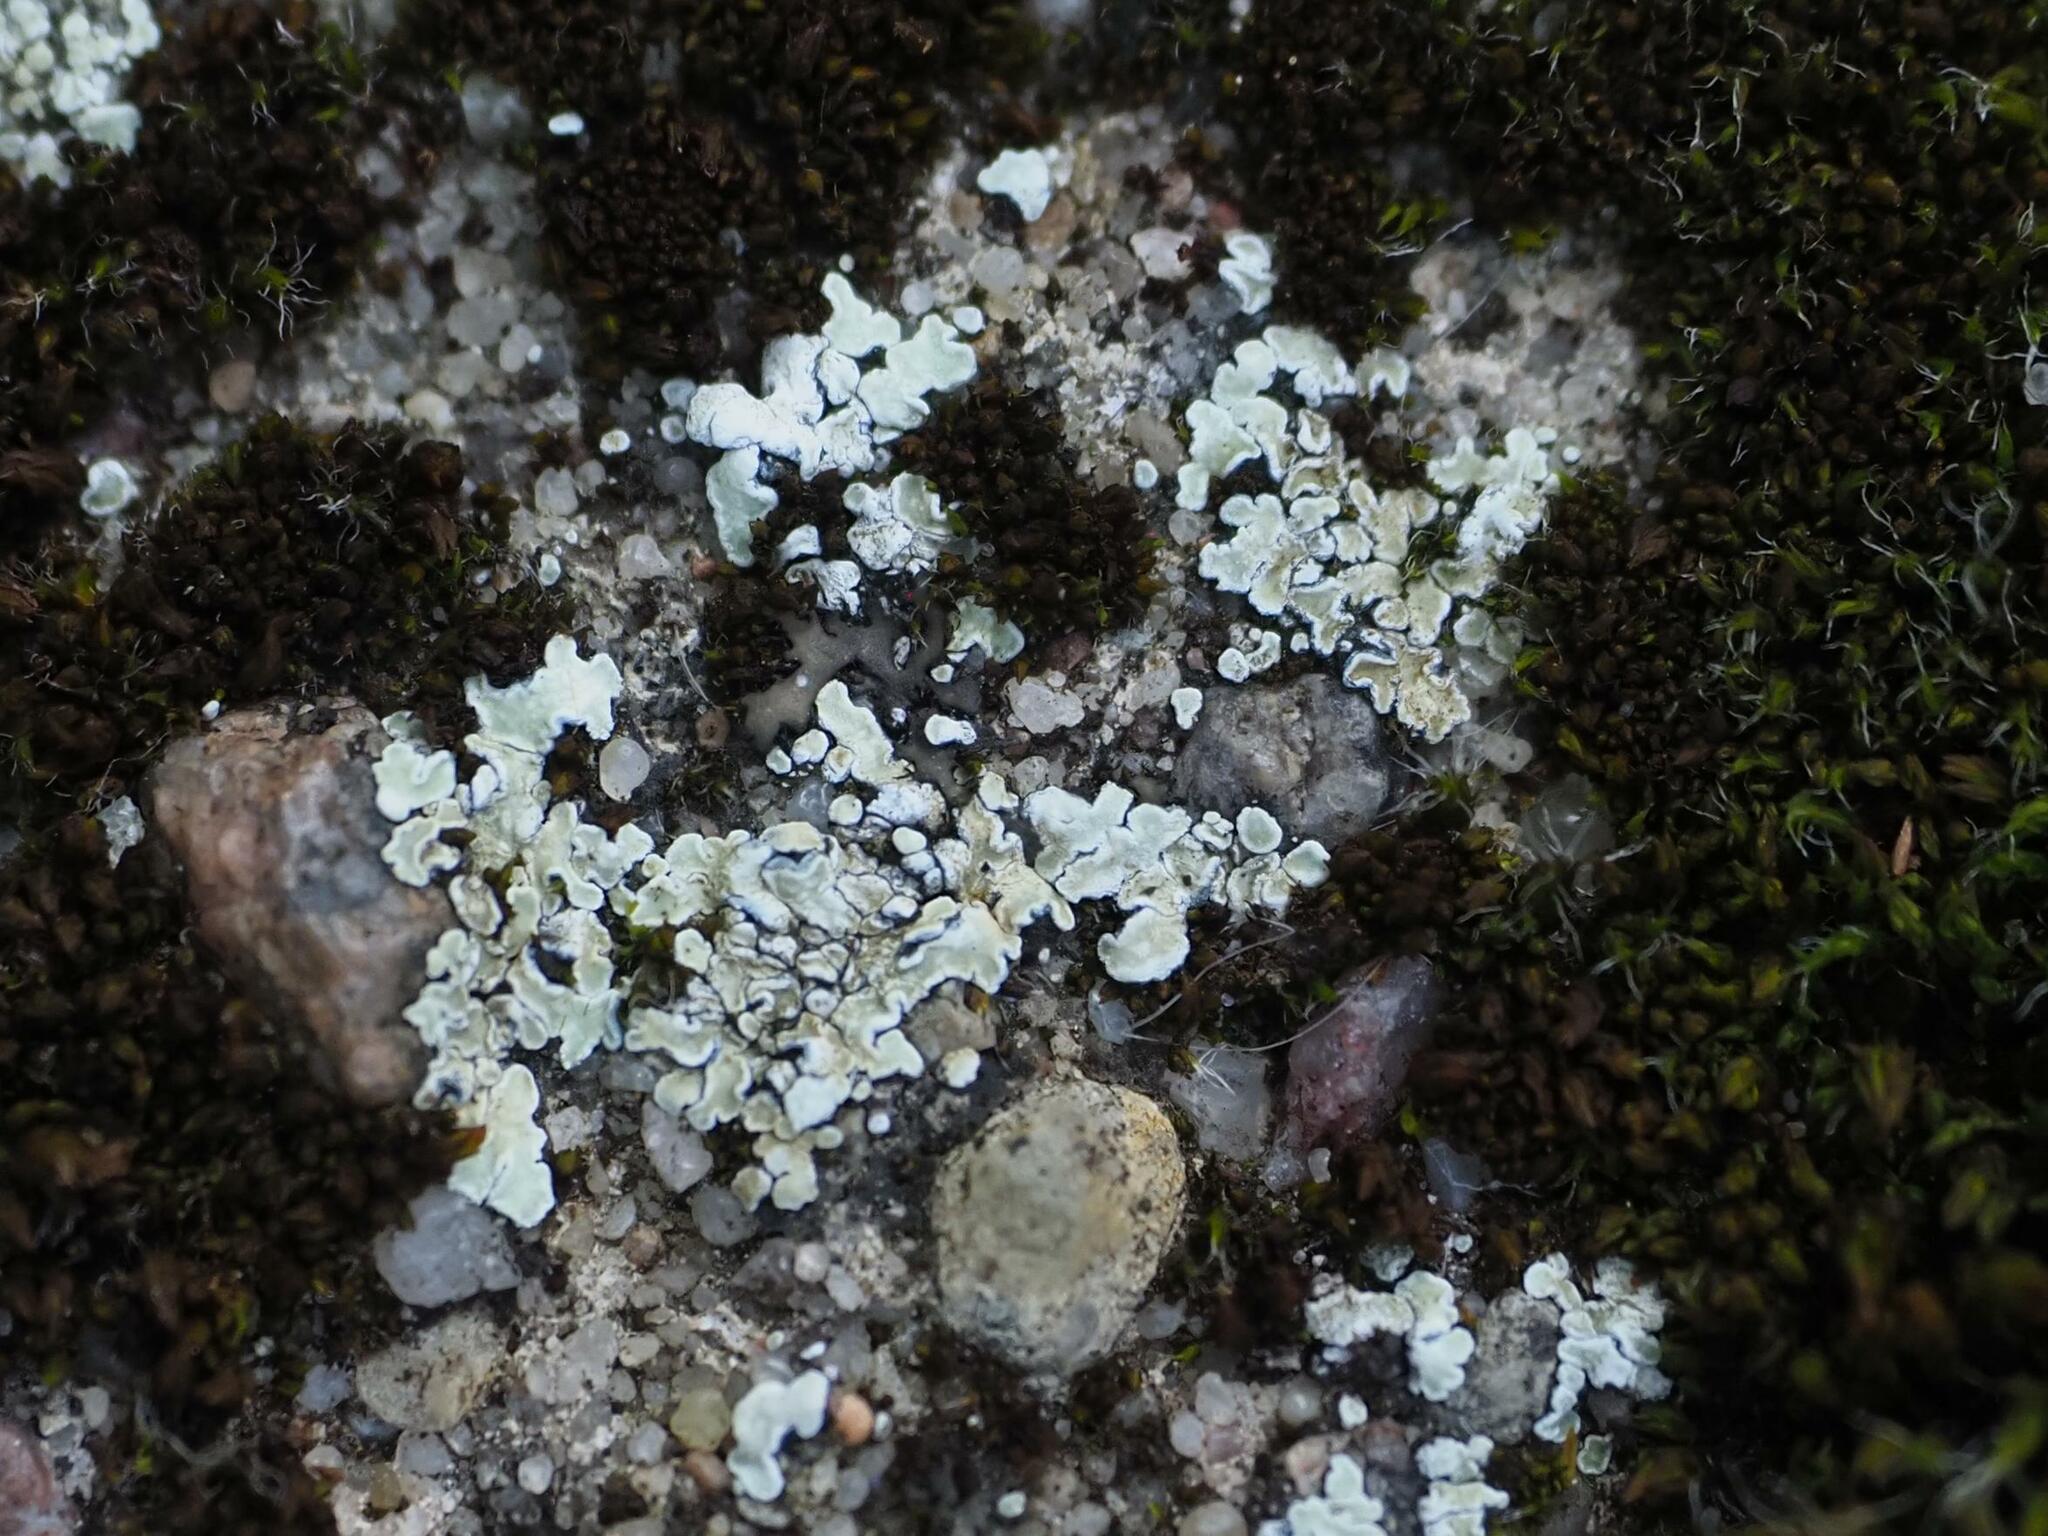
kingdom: Fungi
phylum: Ascomycota
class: Lecanoromycetes
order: Lecanorales
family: Lecanoraceae
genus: Protoparmeliopsis
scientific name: Protoparmeliopsis muralis
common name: Stonewall rim lichen
